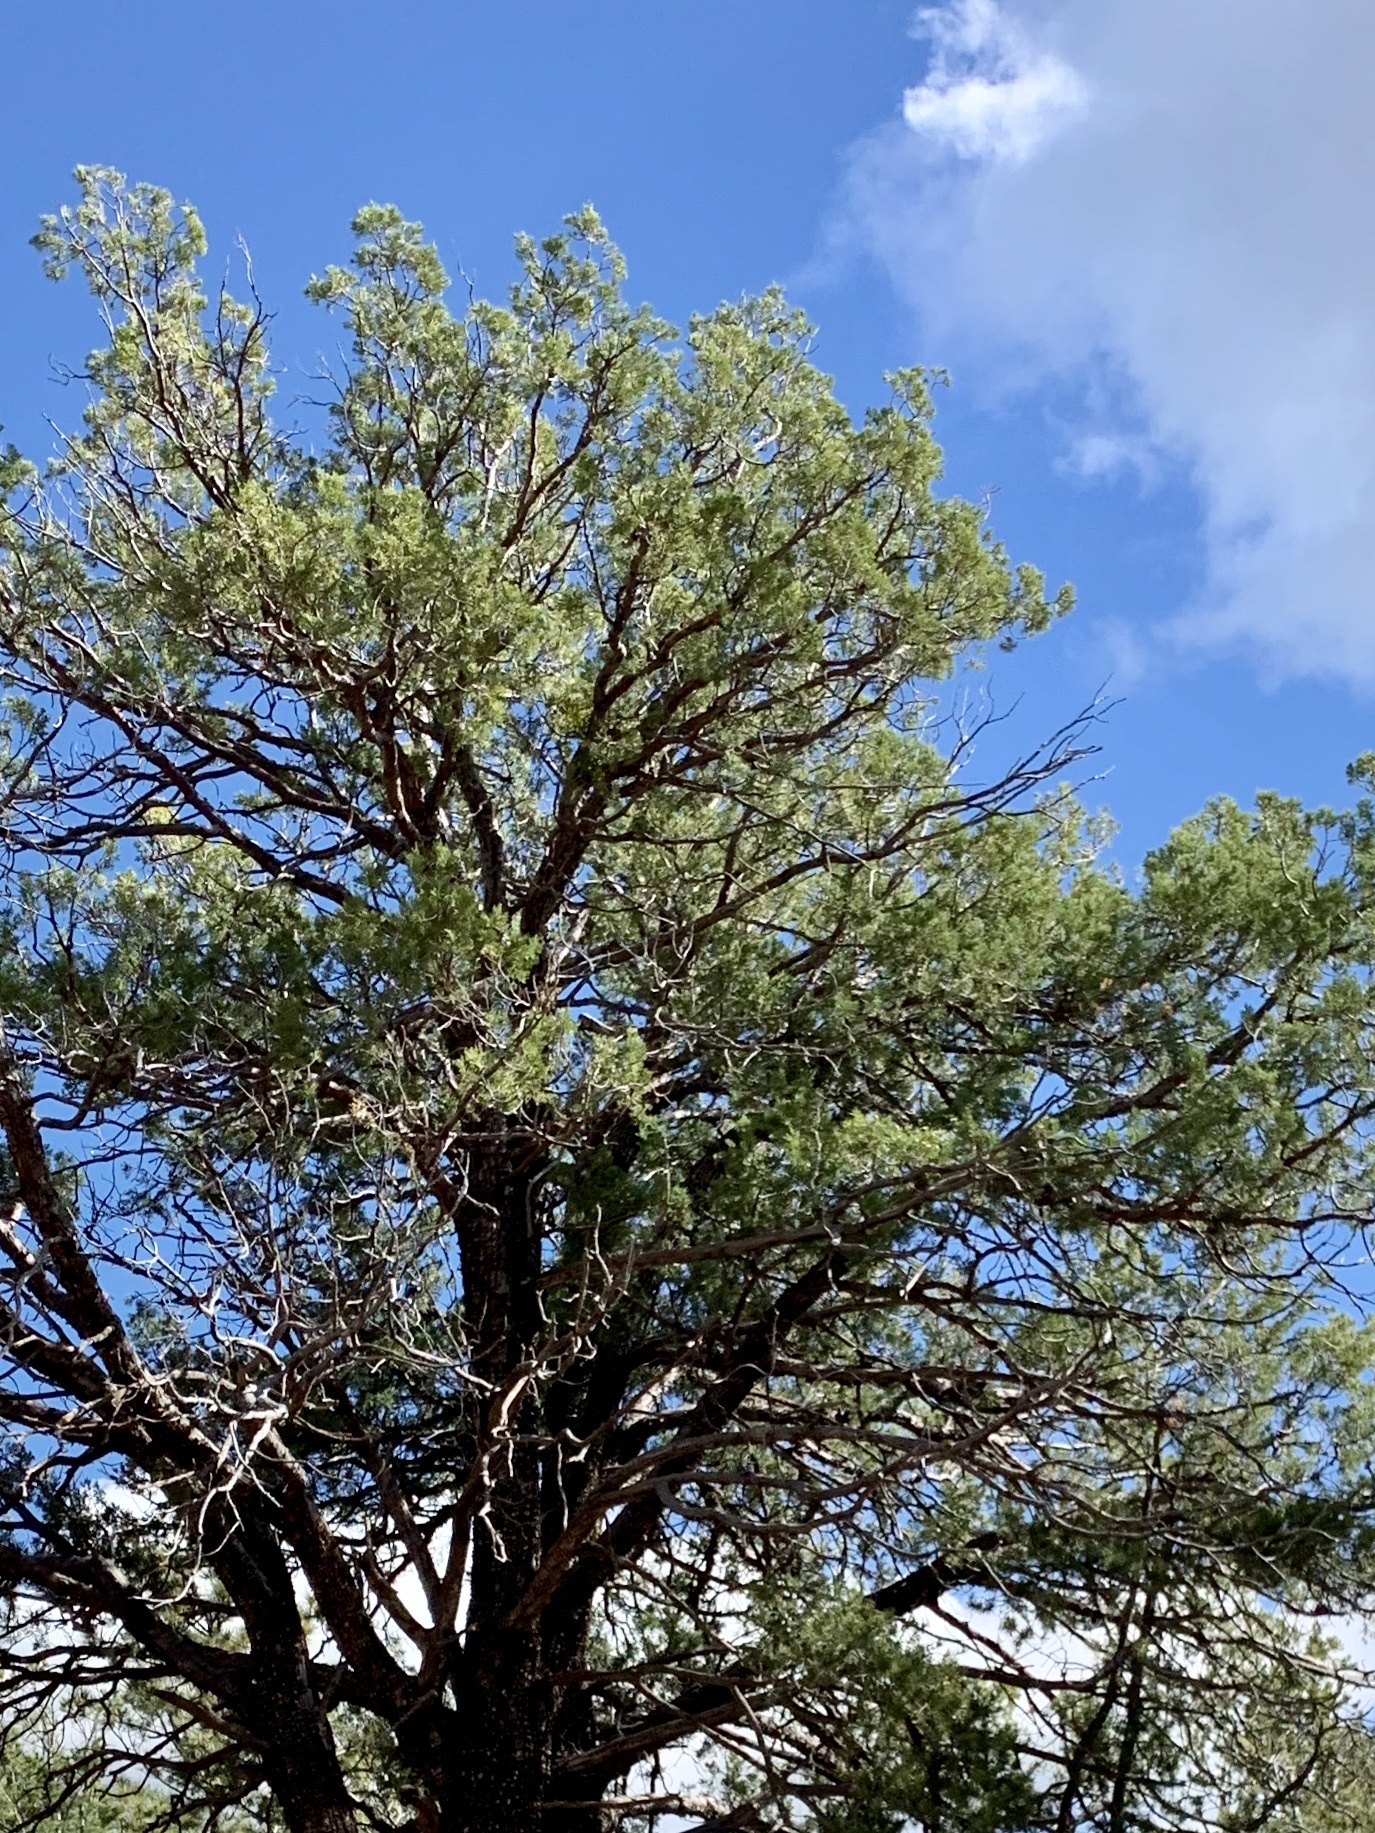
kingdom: Plantae
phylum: Tracheophyta
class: Pinopsida
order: Pinales
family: Pinaceae
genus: Pinus
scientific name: Pinus edulis
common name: Colorado pinyon
